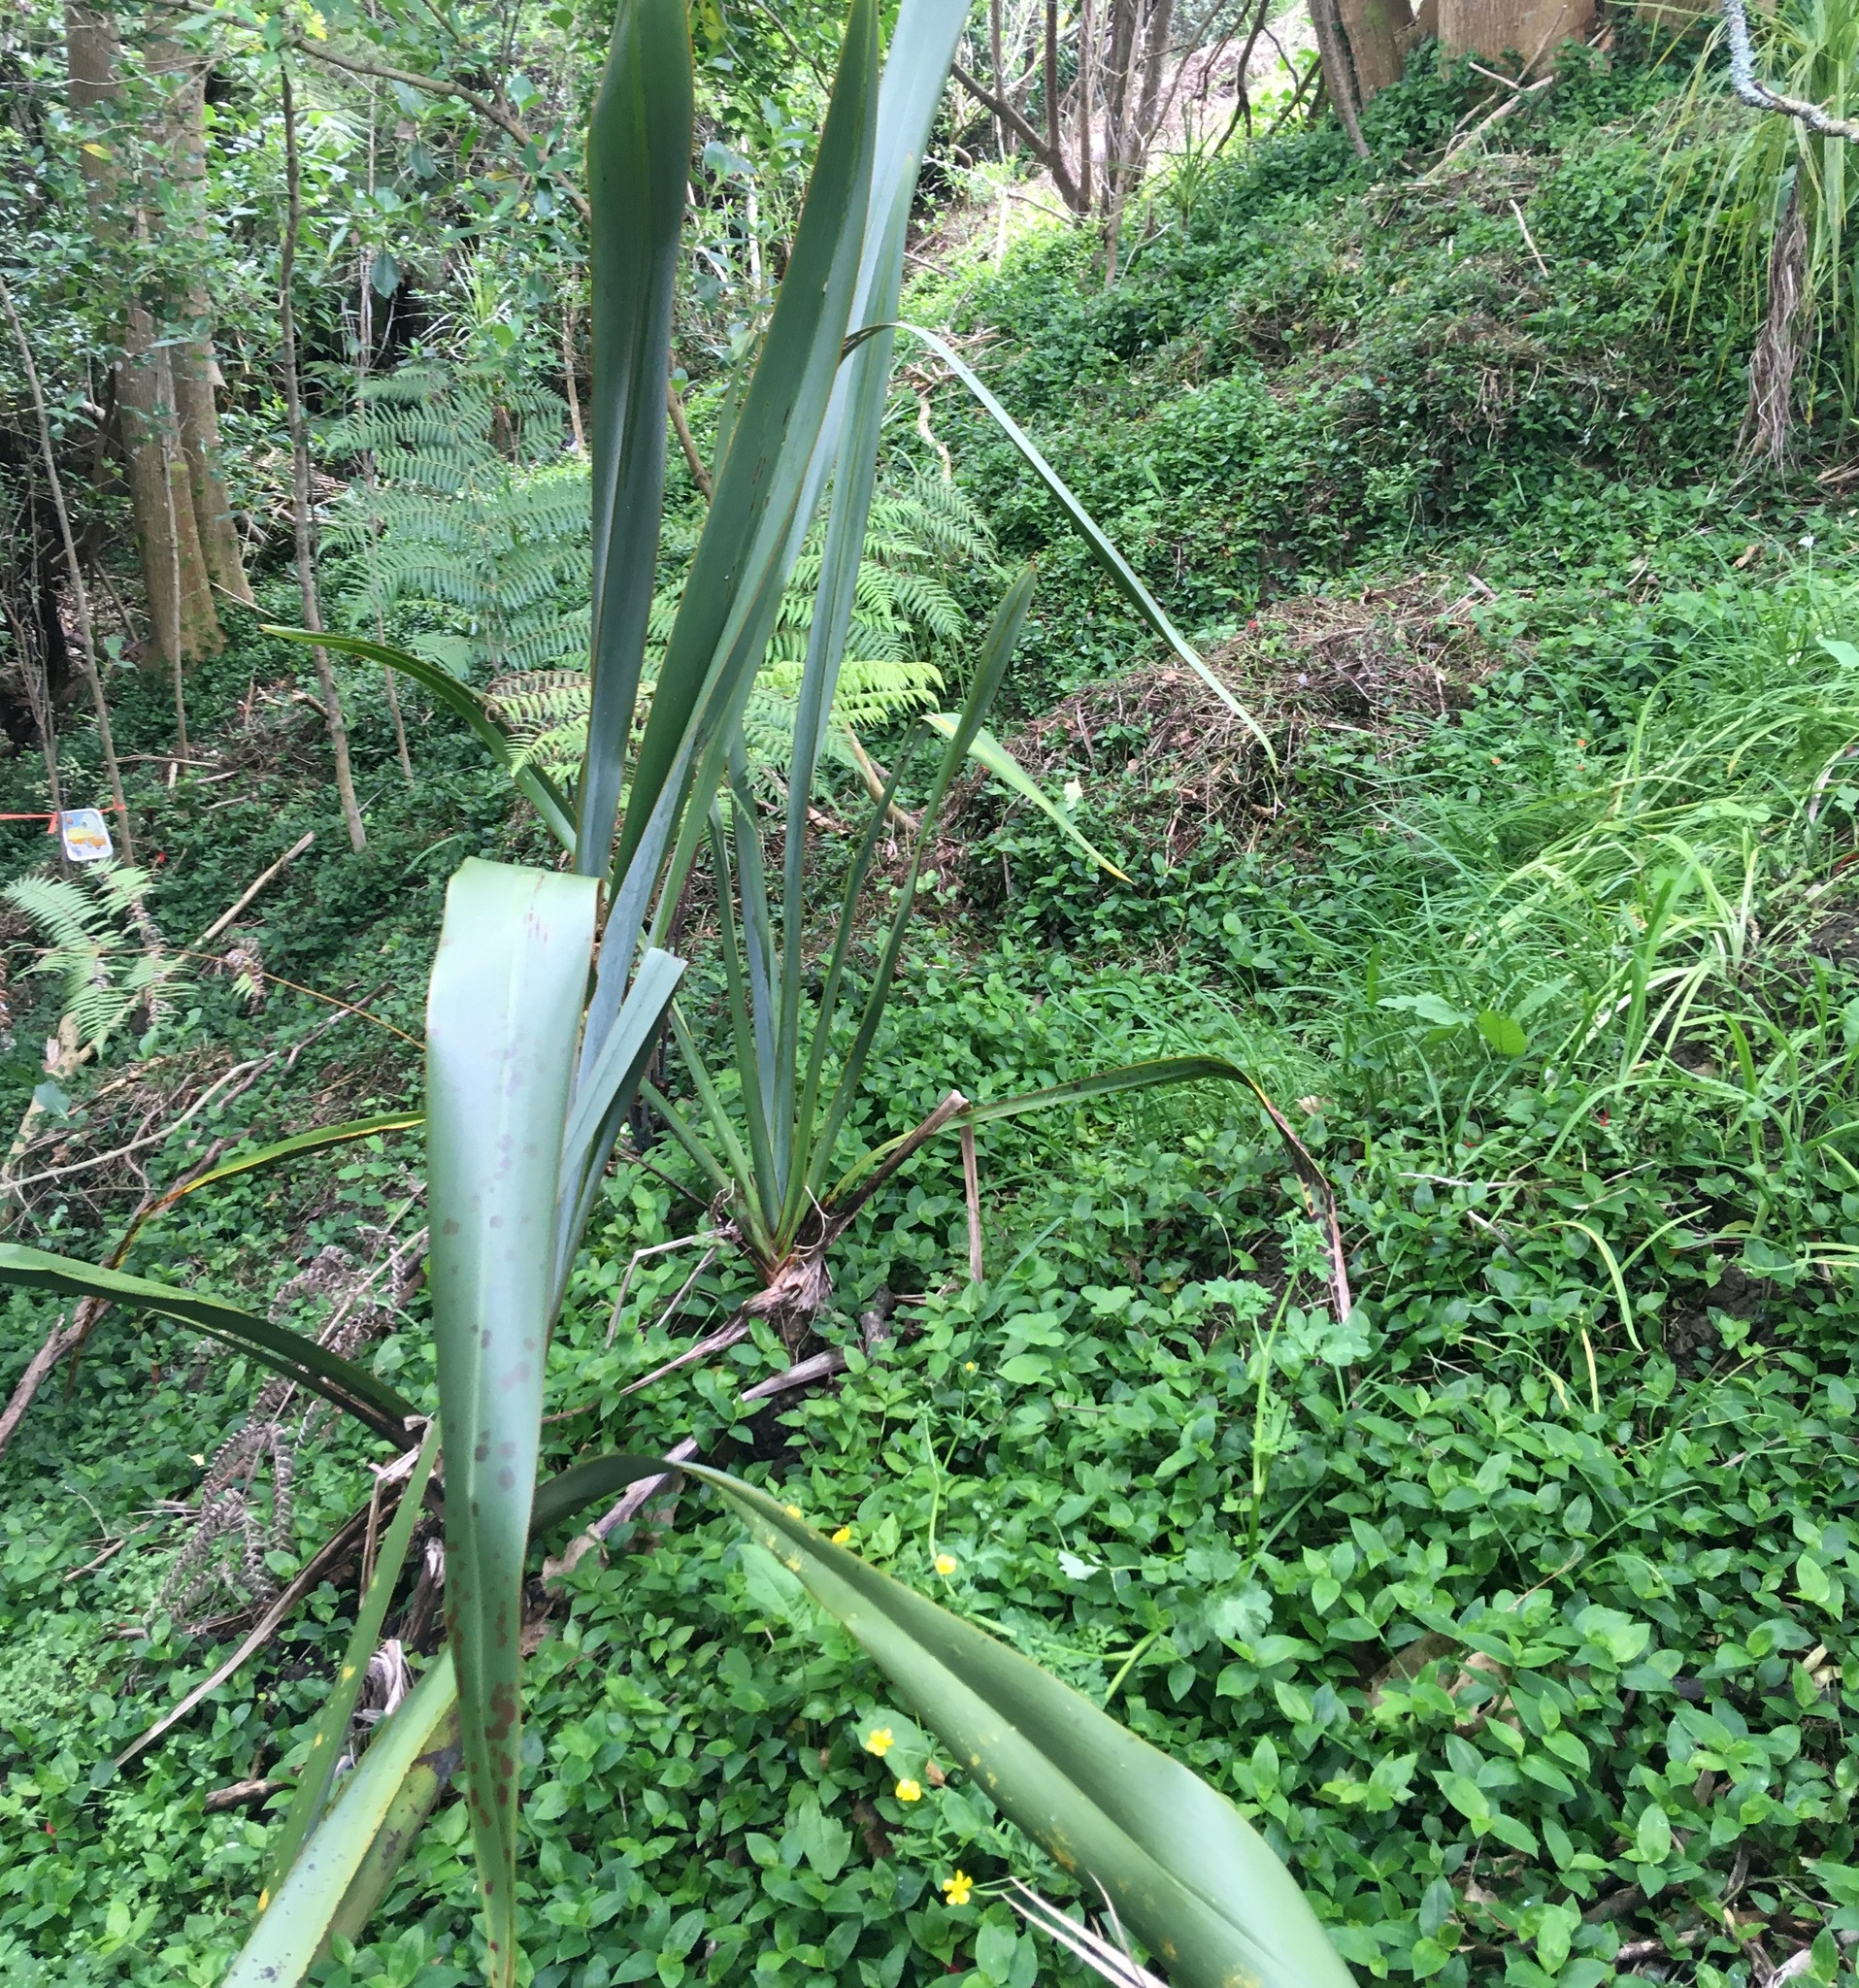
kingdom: Plantae
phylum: Tracheophyta
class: Magnoliopsida
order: Ranunculales
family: Ranunculaceae
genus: Ranunculus
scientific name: Ranunculus repens
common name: Creeping buttercup
